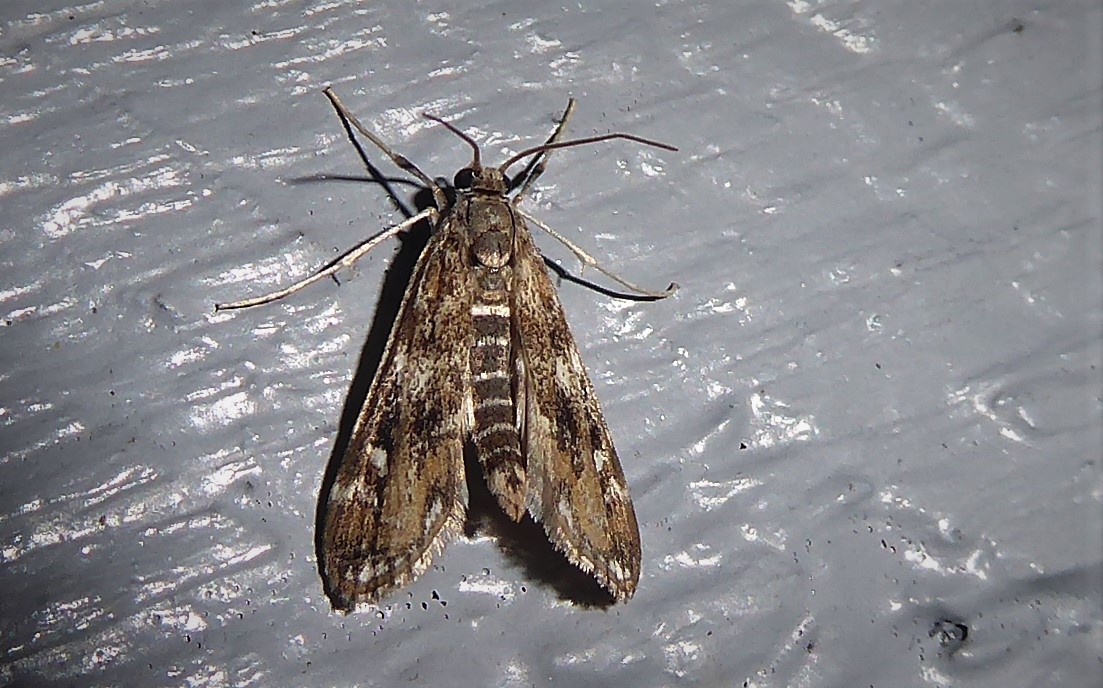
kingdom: Animalia
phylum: Arthropoda
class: Insecta
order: Lepidoptera
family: Crambidae
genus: Hygraula
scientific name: Hygraula nitens
